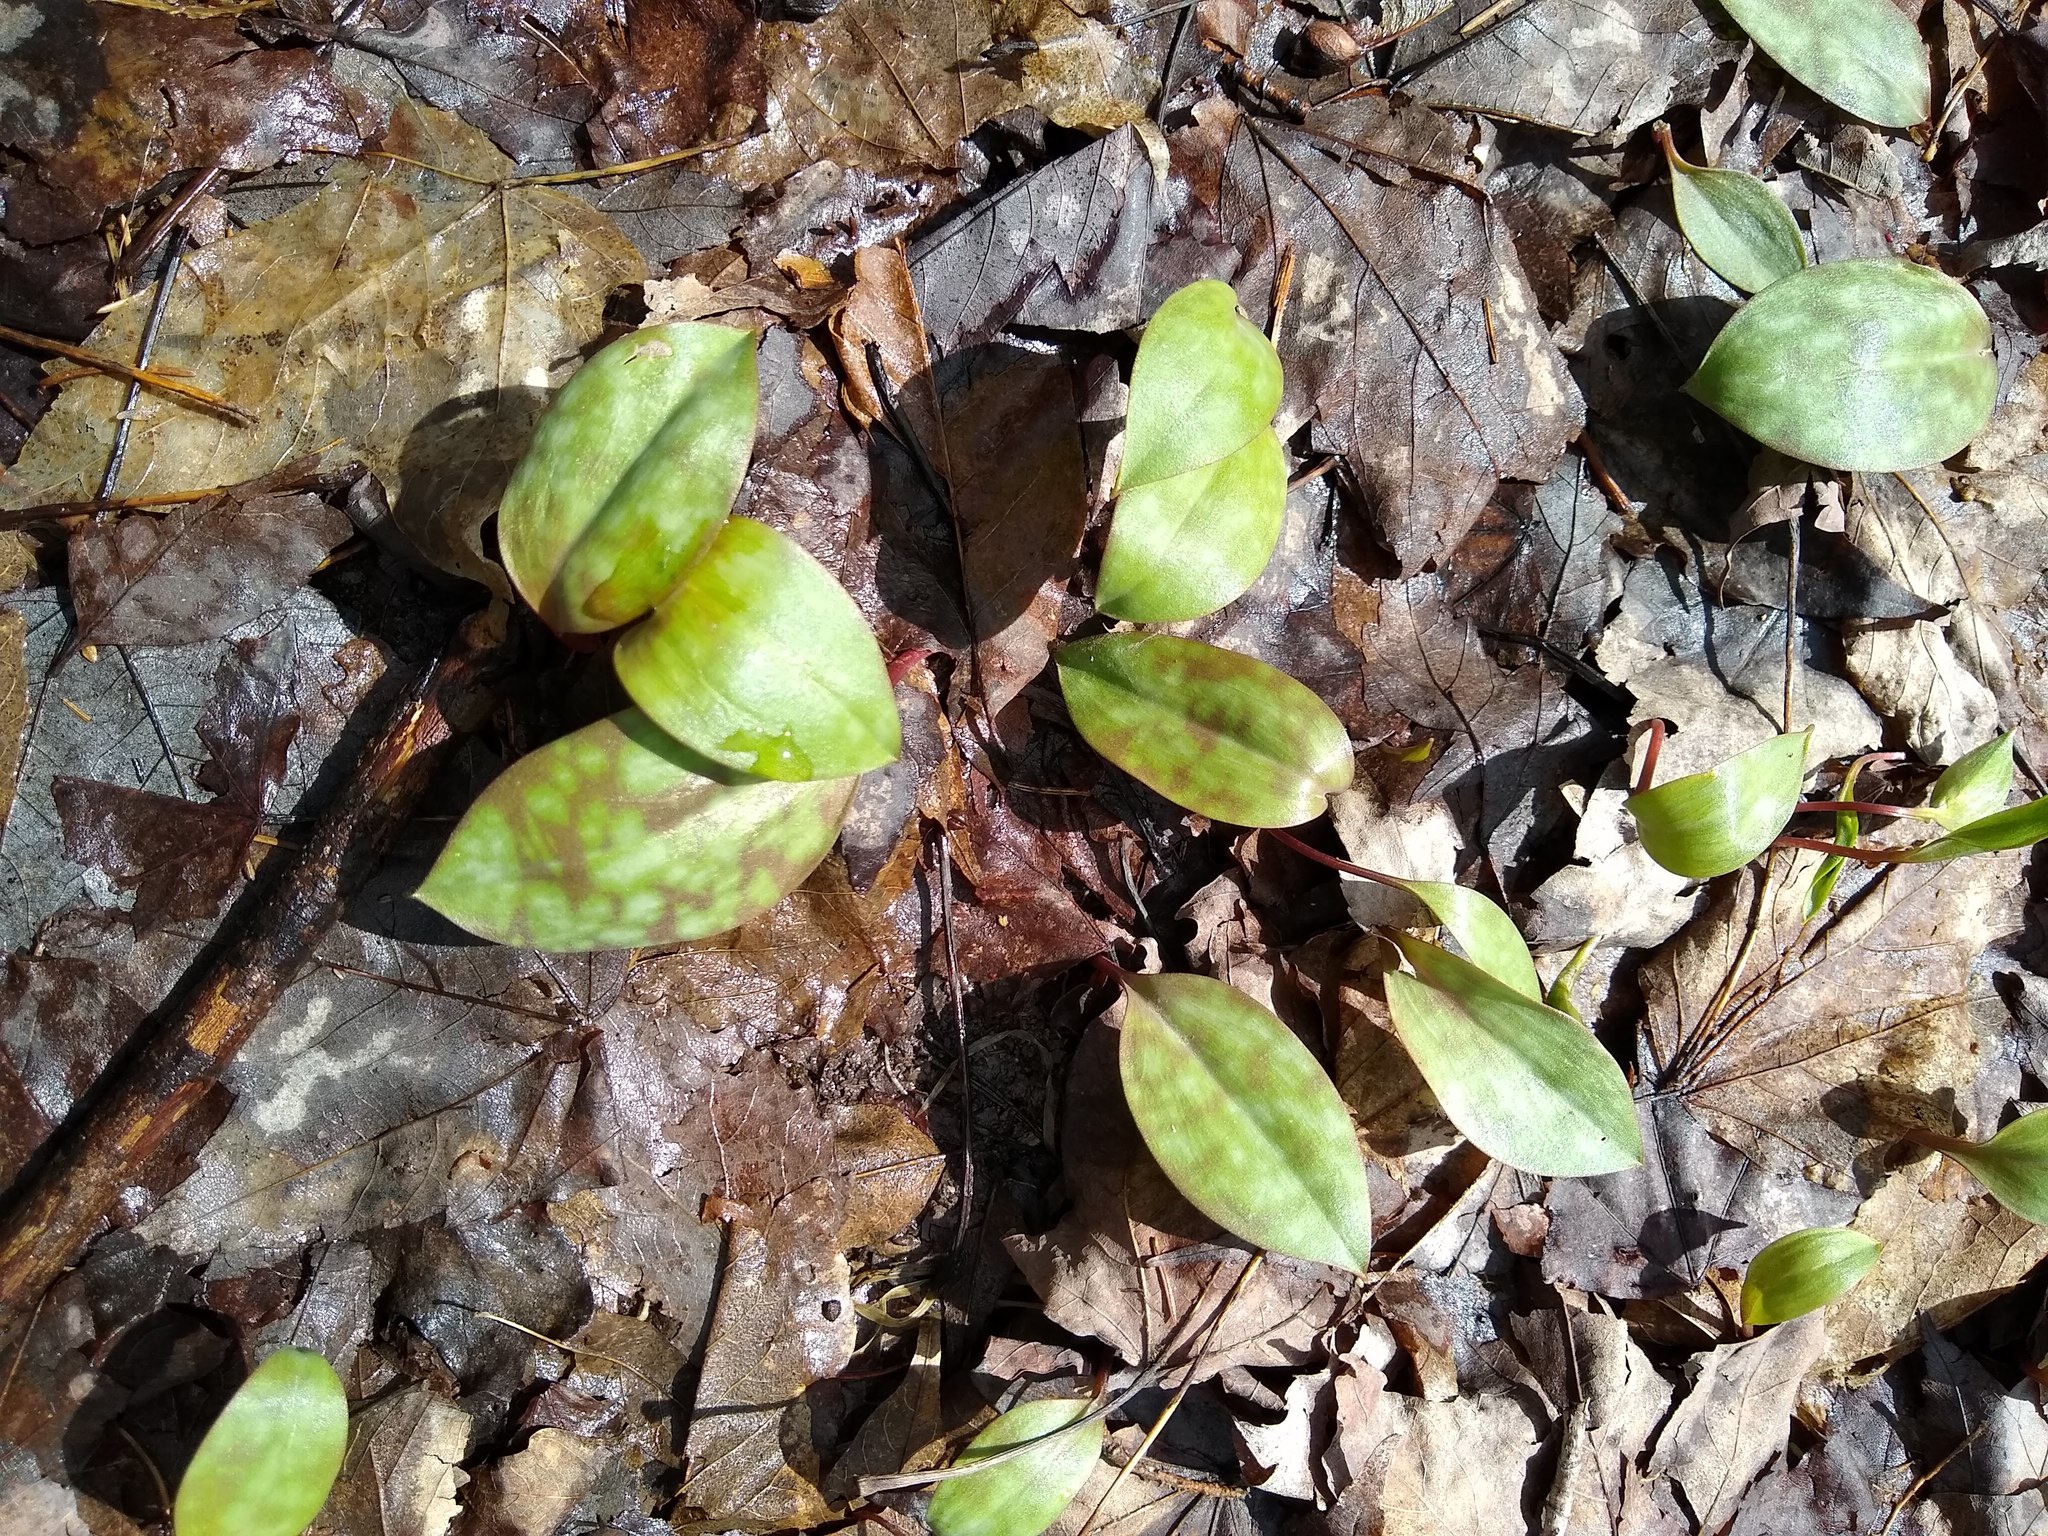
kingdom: Plantae
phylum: Tracheophyta
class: Liliopsida
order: Liliales
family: Liliaceae
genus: Erythronium
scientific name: Erythronium americanum
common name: Yellow adder's-tongue
